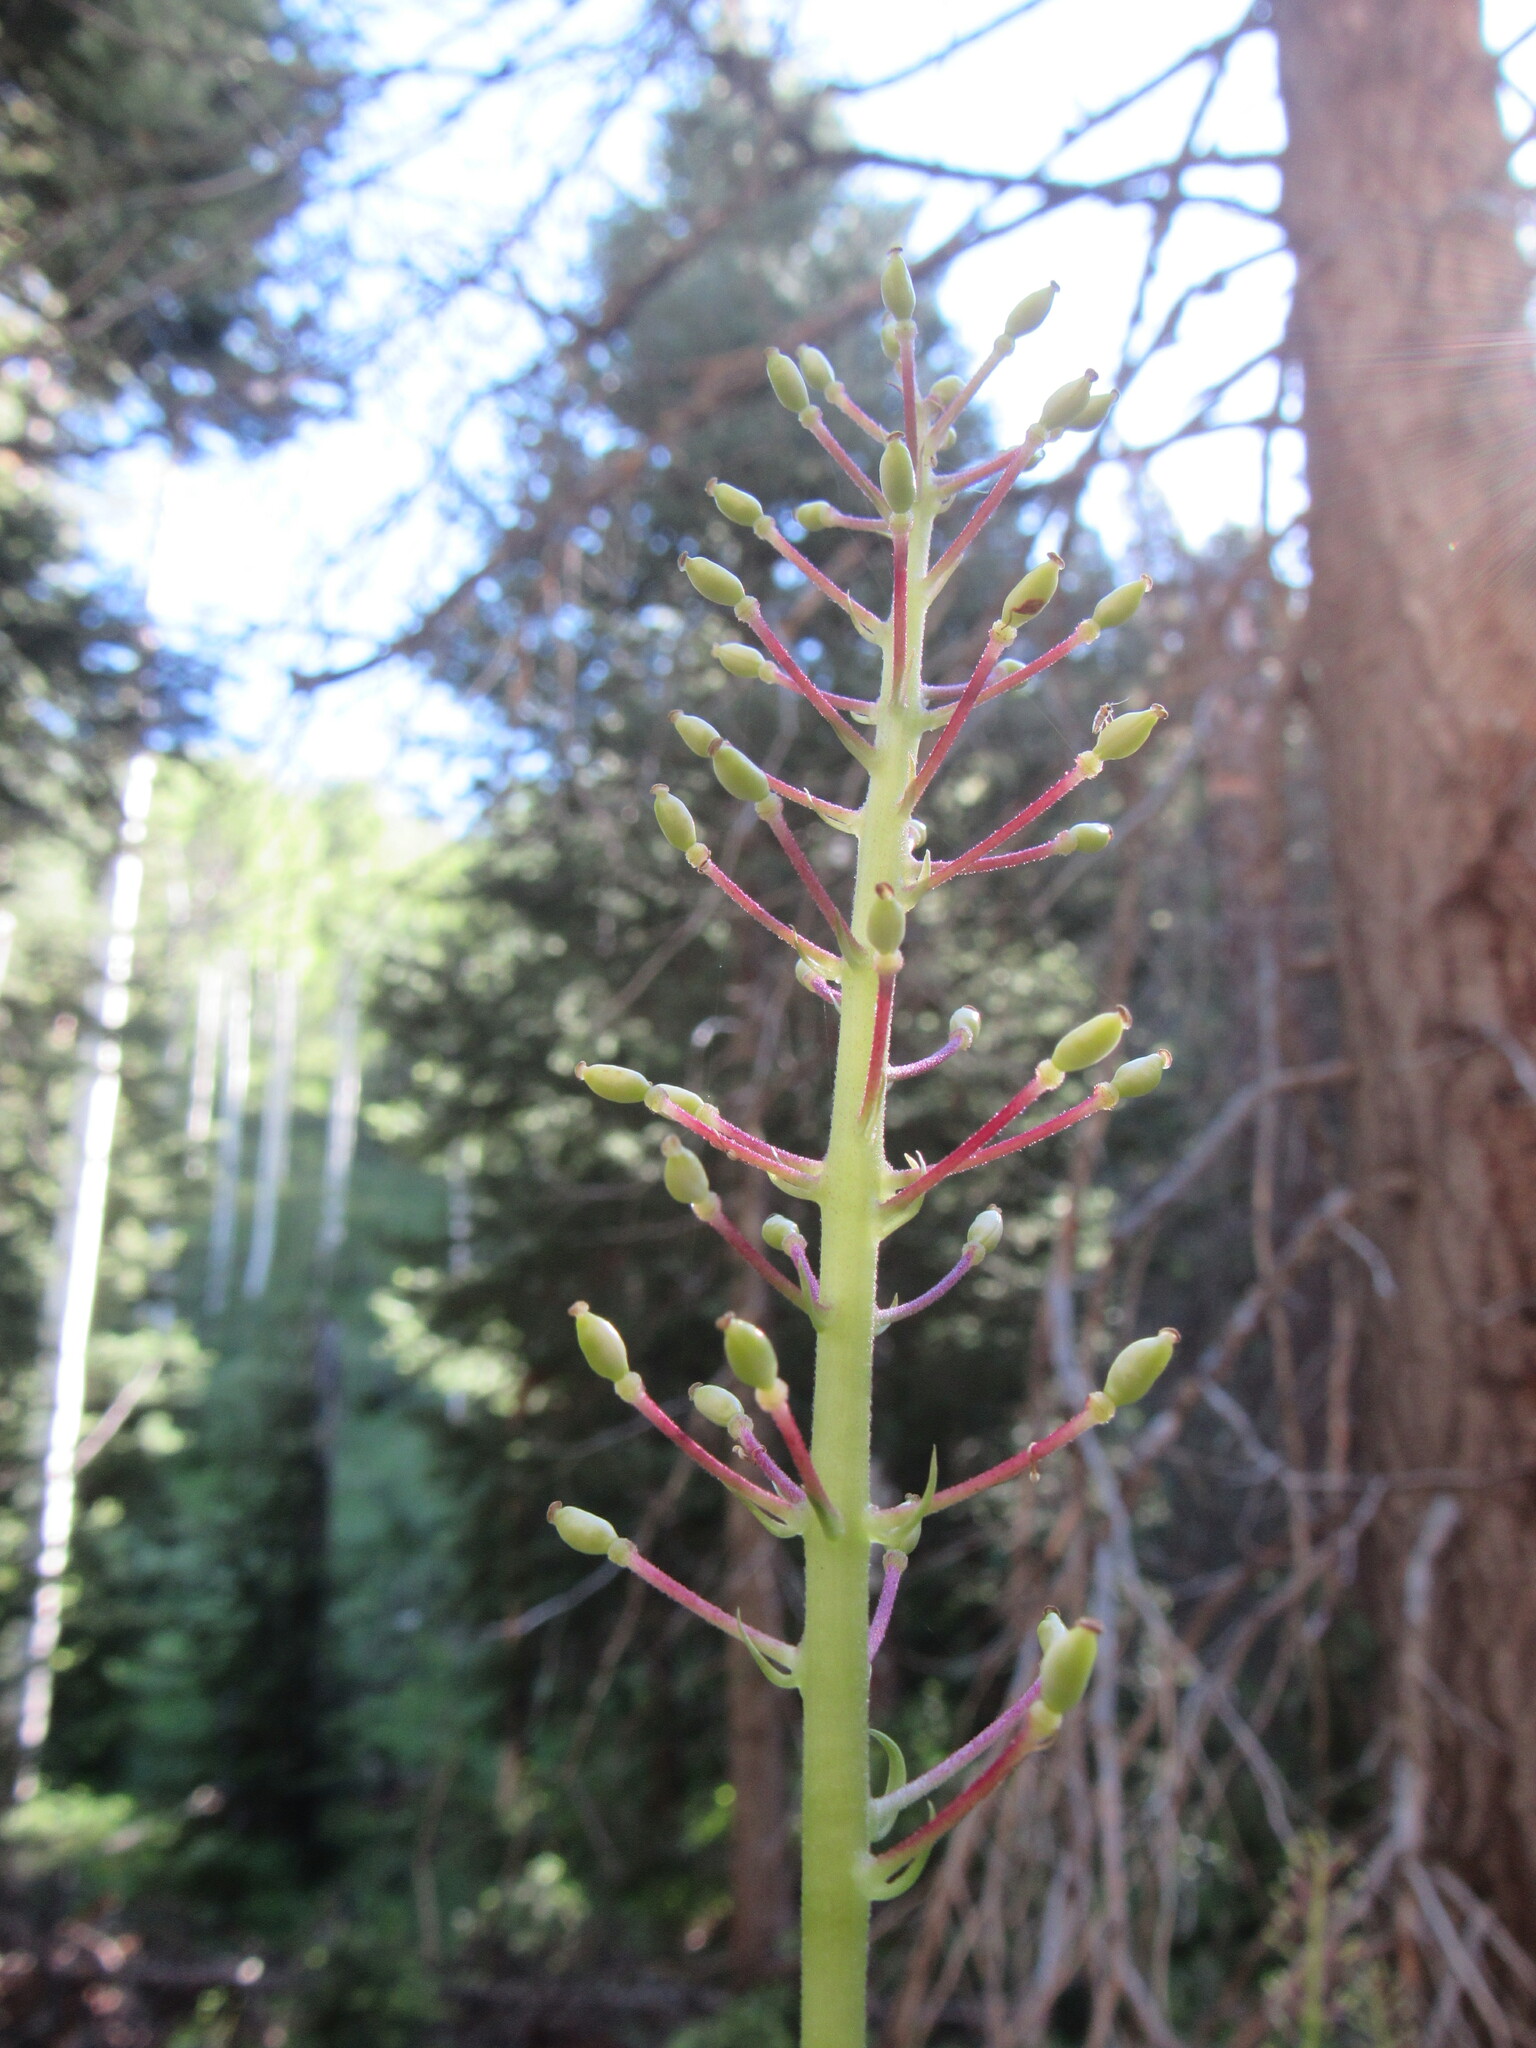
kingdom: Plantae
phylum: Tracheophyta
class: Magnoliopsida
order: Ranunculales
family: Ranunculaceae
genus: Actaea
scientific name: Actaea rubra
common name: Red baneberry
